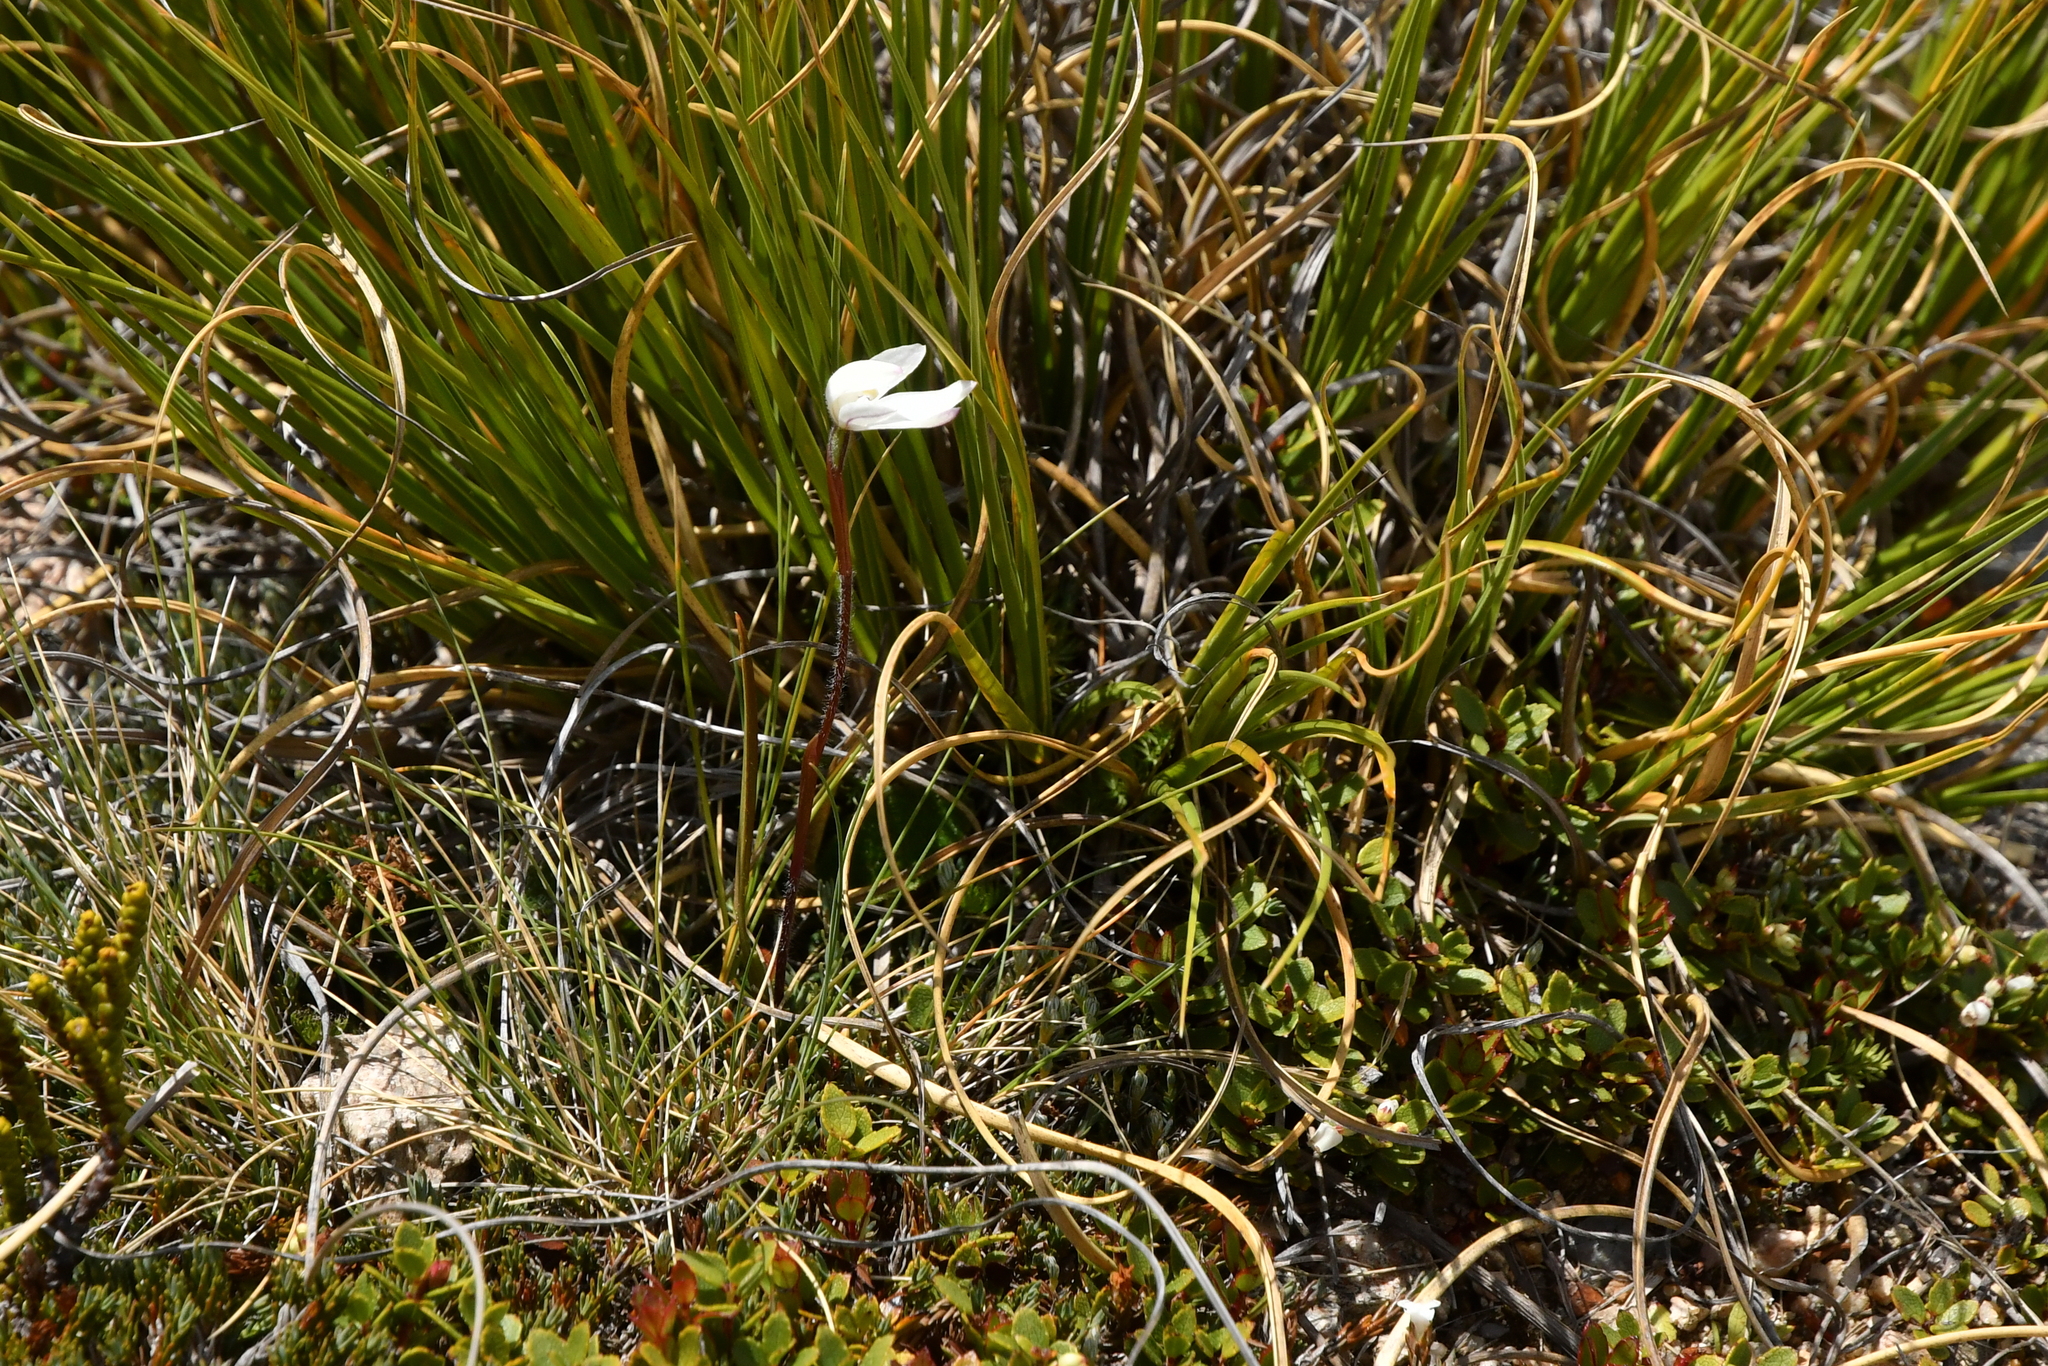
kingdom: Plantae
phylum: Tracheophyta
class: Liliopsida
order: Asparagales
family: Orchidaceae
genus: Caladenia
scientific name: Caladenia lyallii
